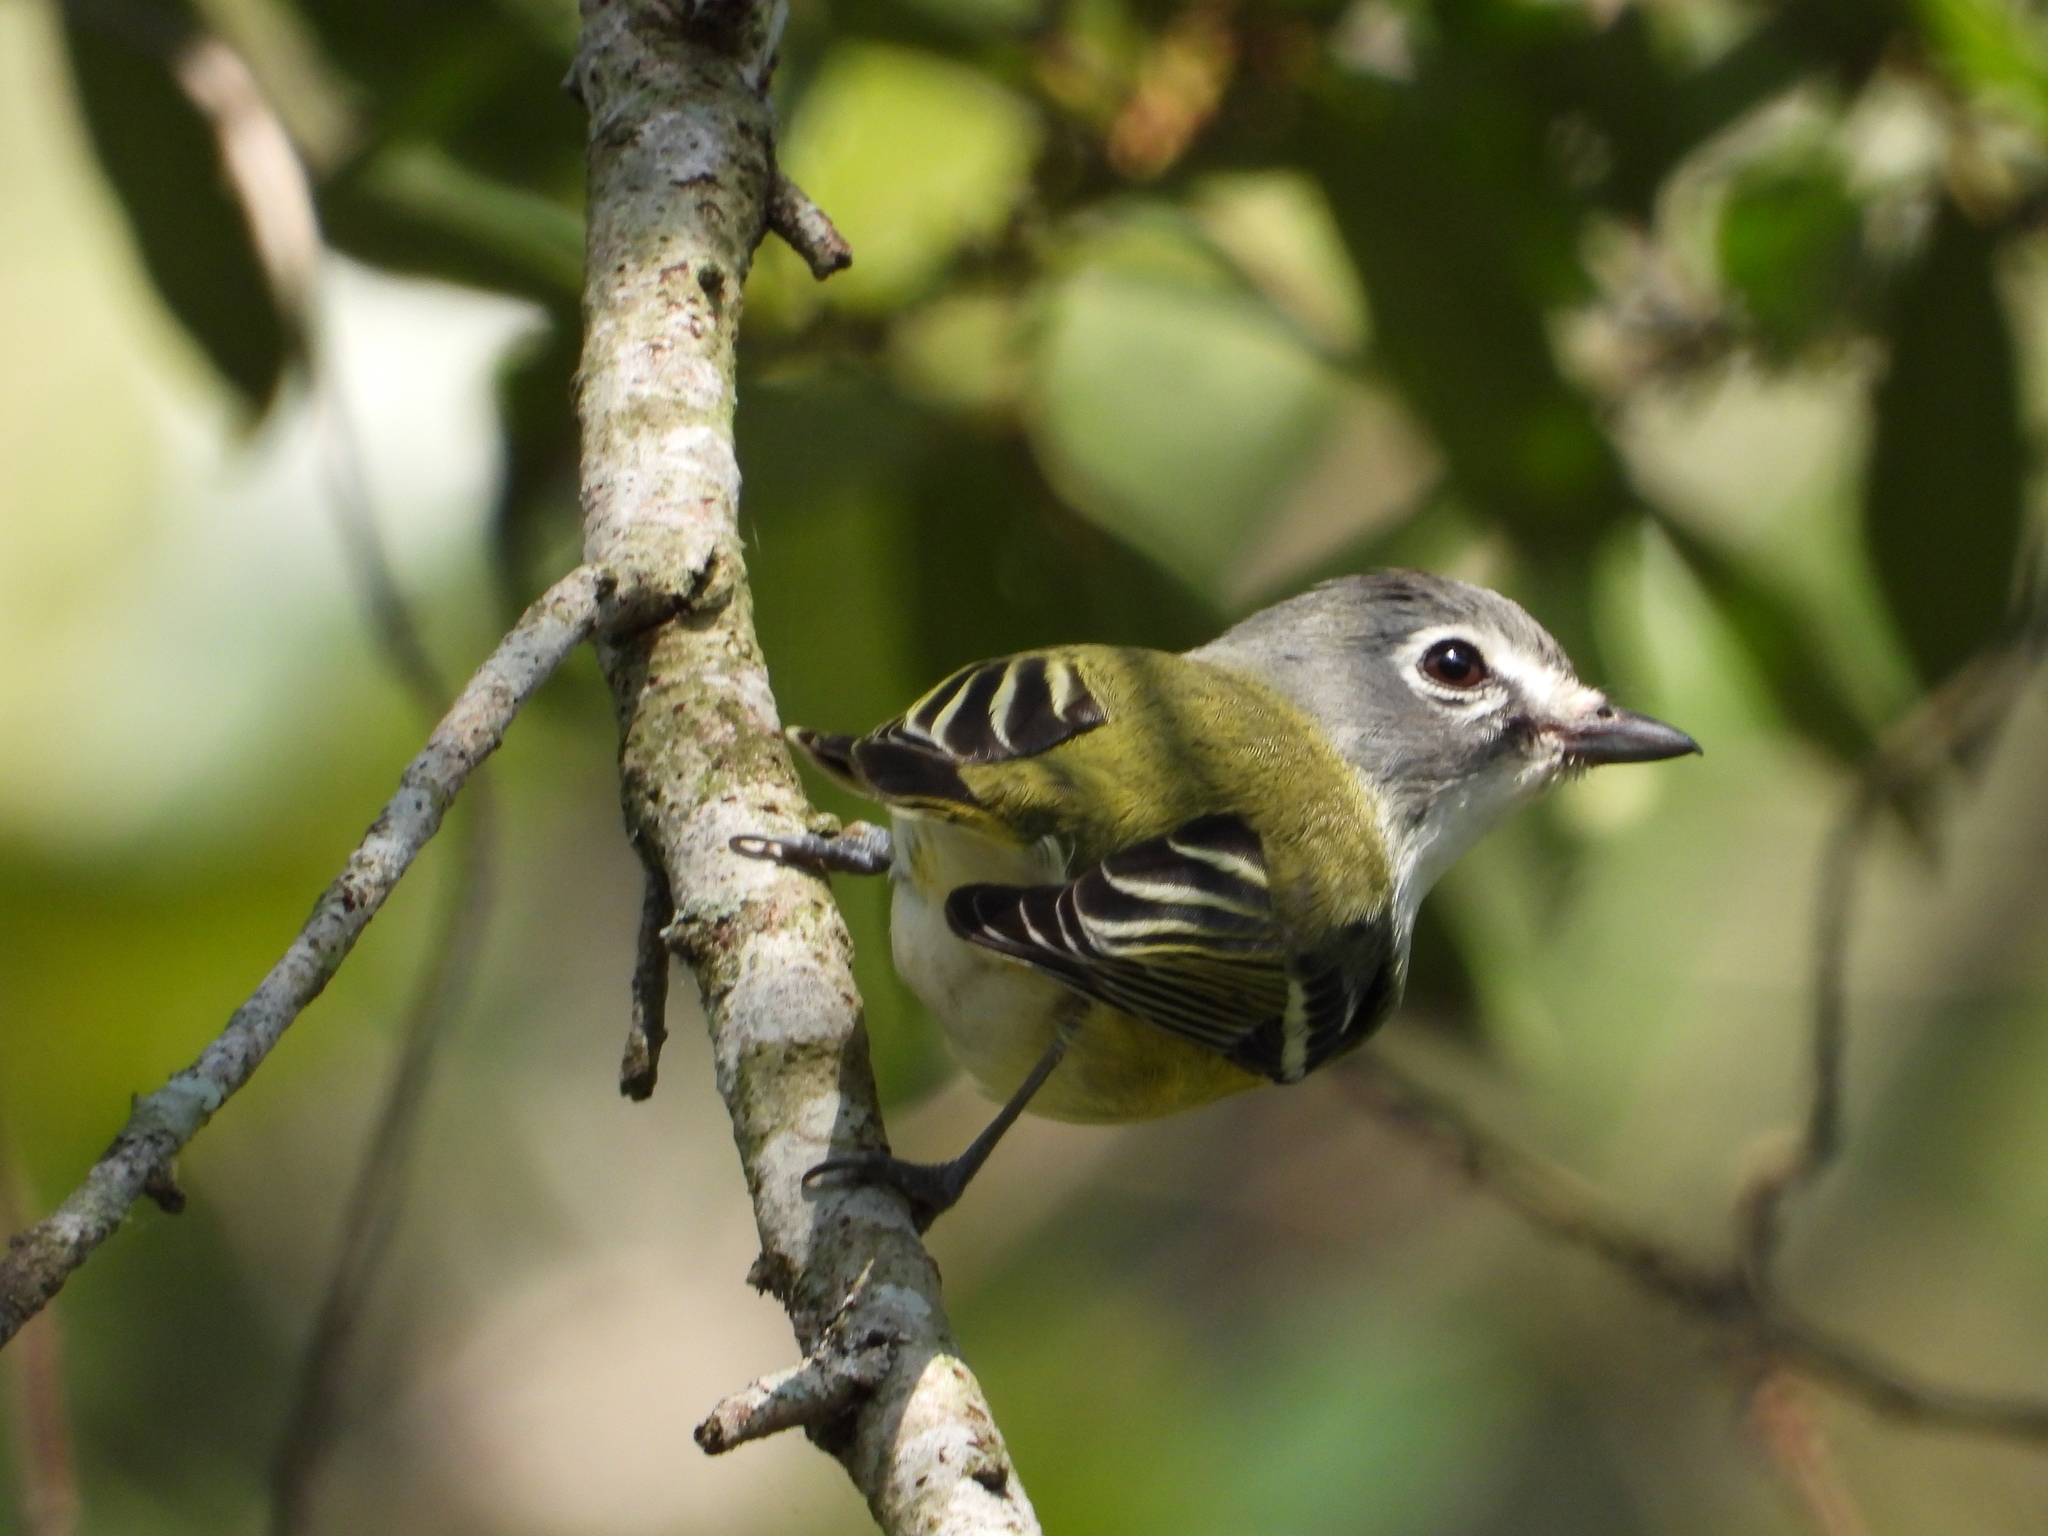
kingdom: Animalia
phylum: Chordata
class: Aves
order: Passeriformes
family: Vireonidae
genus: Vireo
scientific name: Vireo solitarius
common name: Blue-headed vireo
